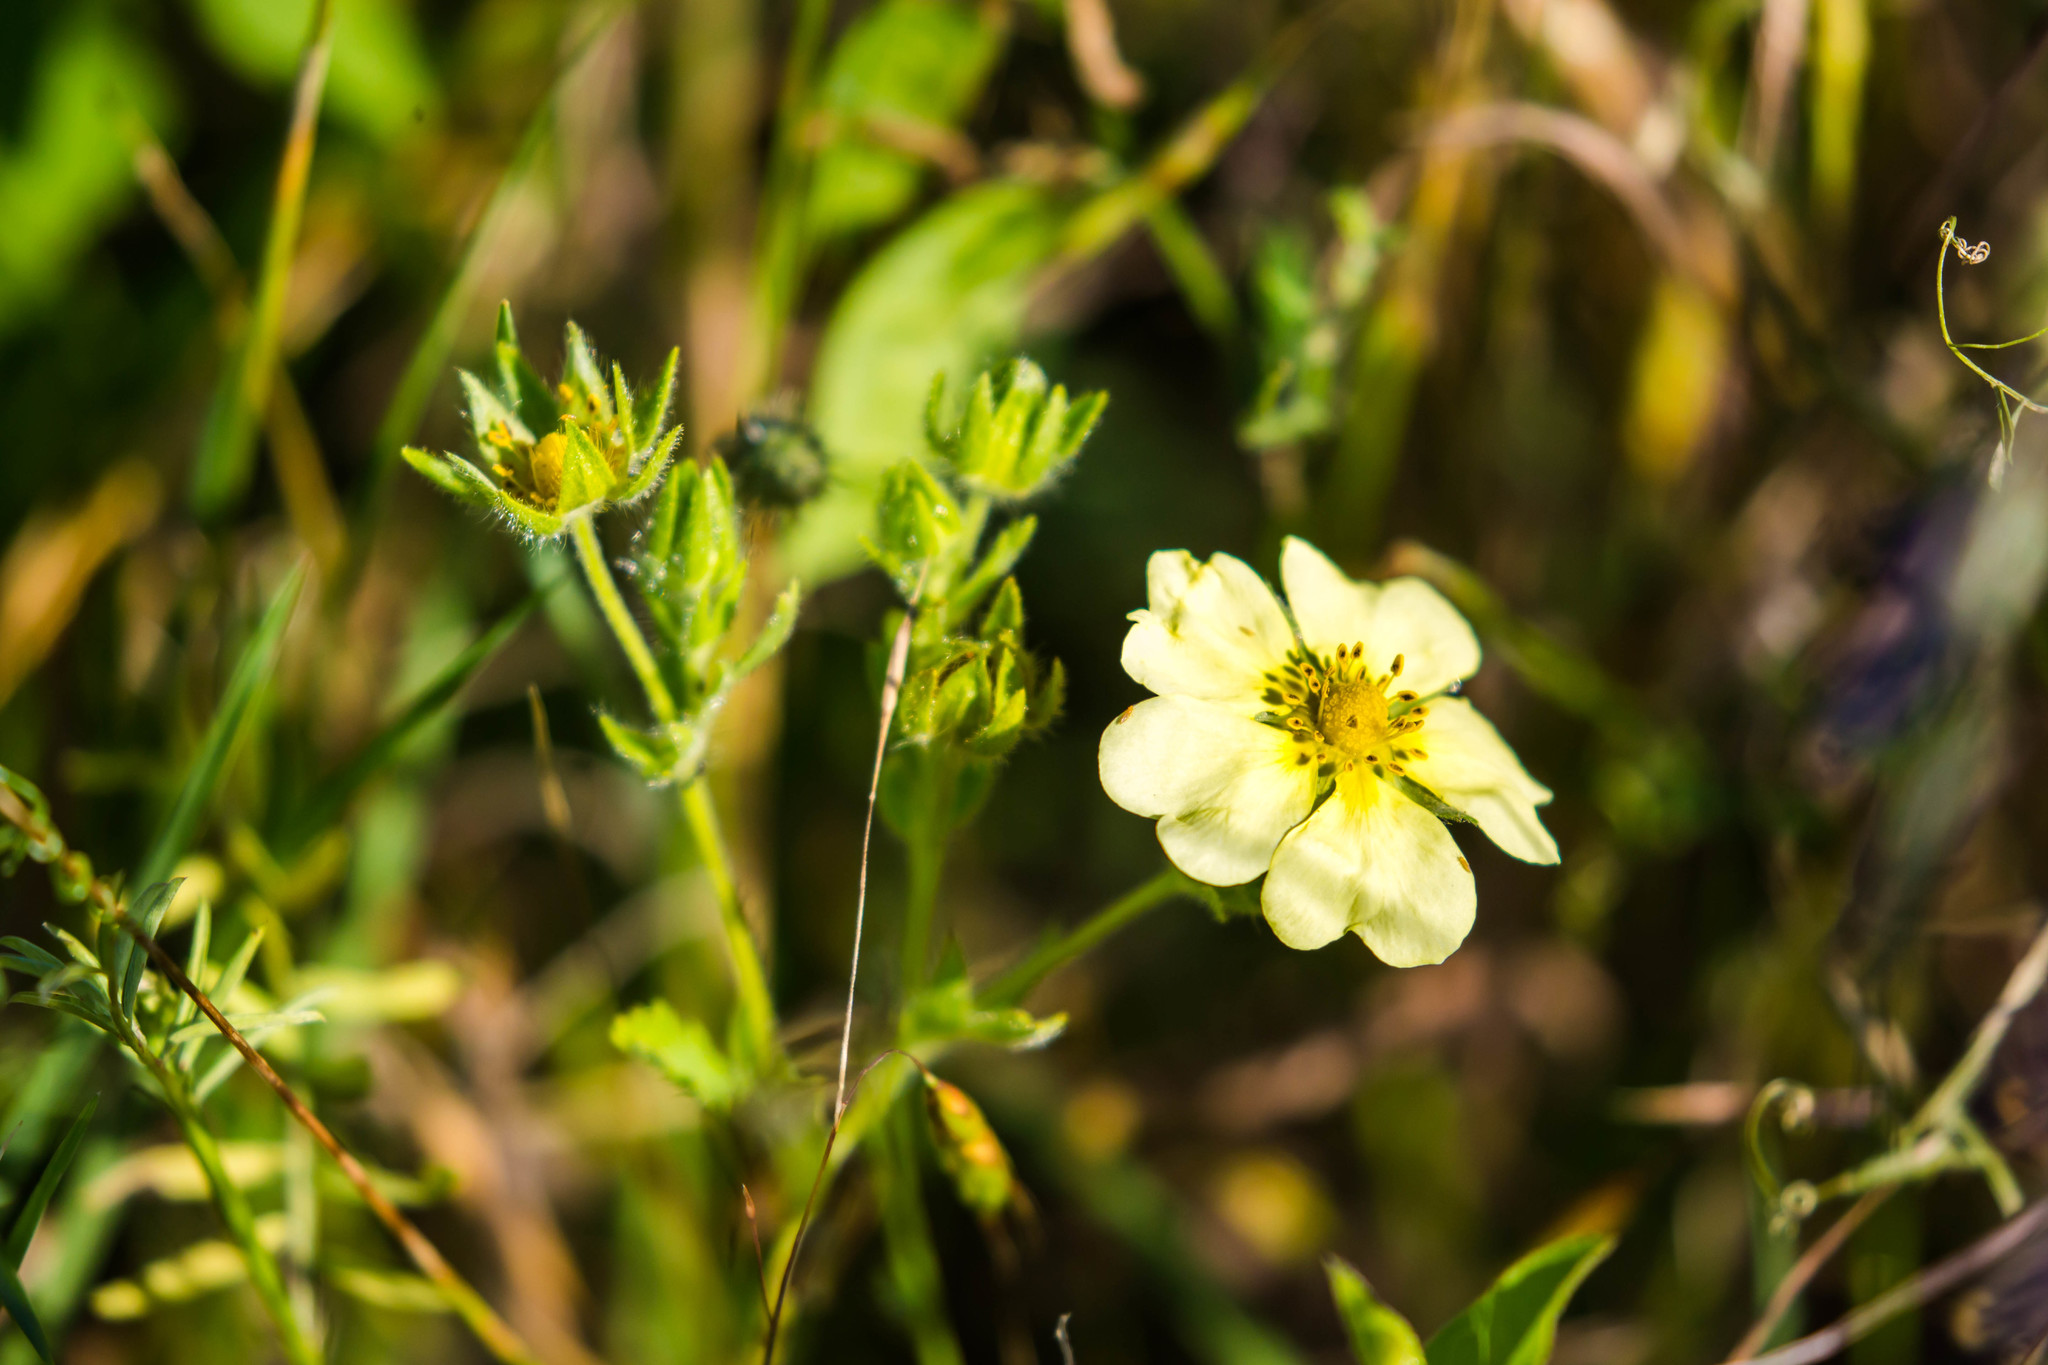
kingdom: Plantae
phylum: Tracheophyta
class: Magnoliopsida
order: Rosales
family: Rosaceae
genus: Potentilla
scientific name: Potentilla recta
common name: Sulphur cinquefoil
